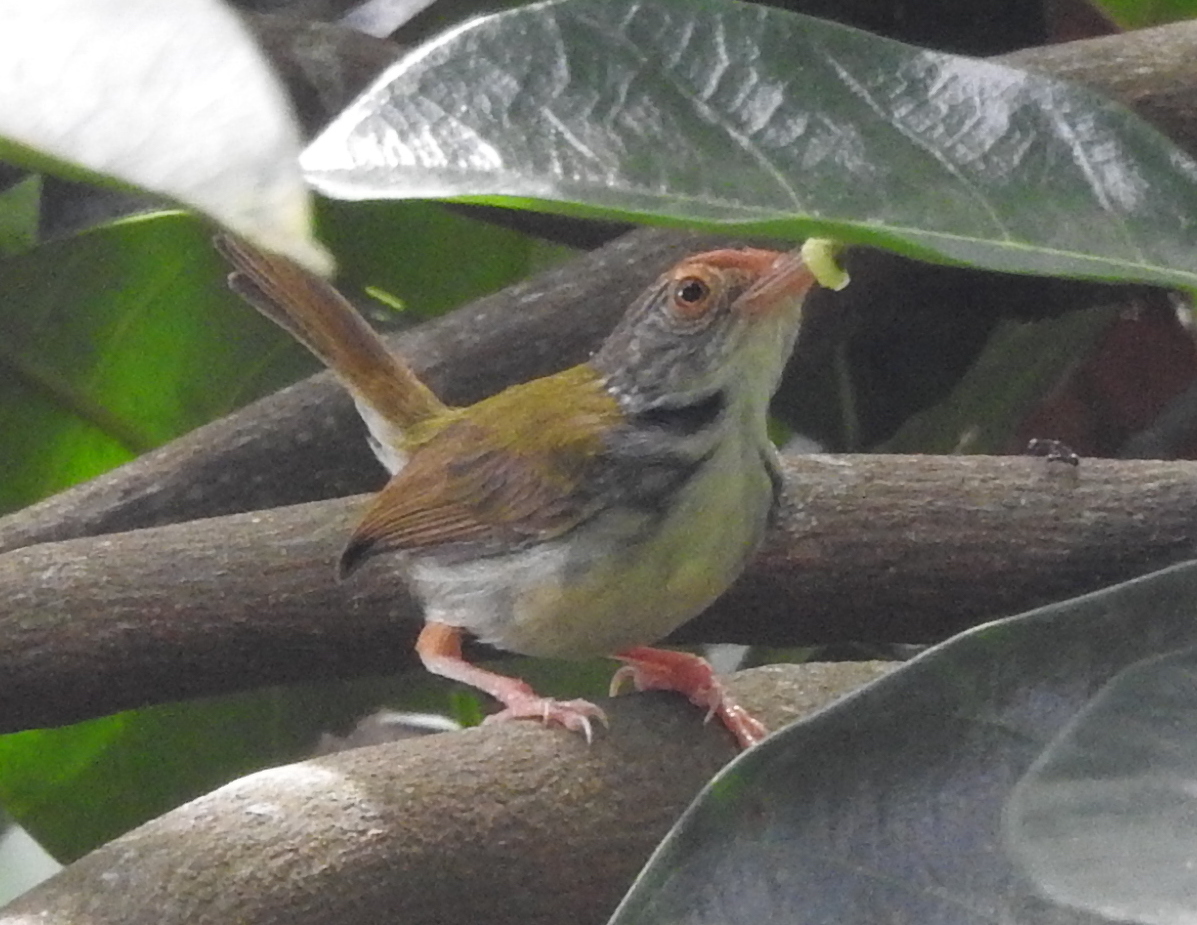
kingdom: Animalia
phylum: Chordata
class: Aves
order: Passeriformes
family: Cisticolidae
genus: Orthotomus
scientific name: Orthotomus sutorius
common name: Common tailorbird
